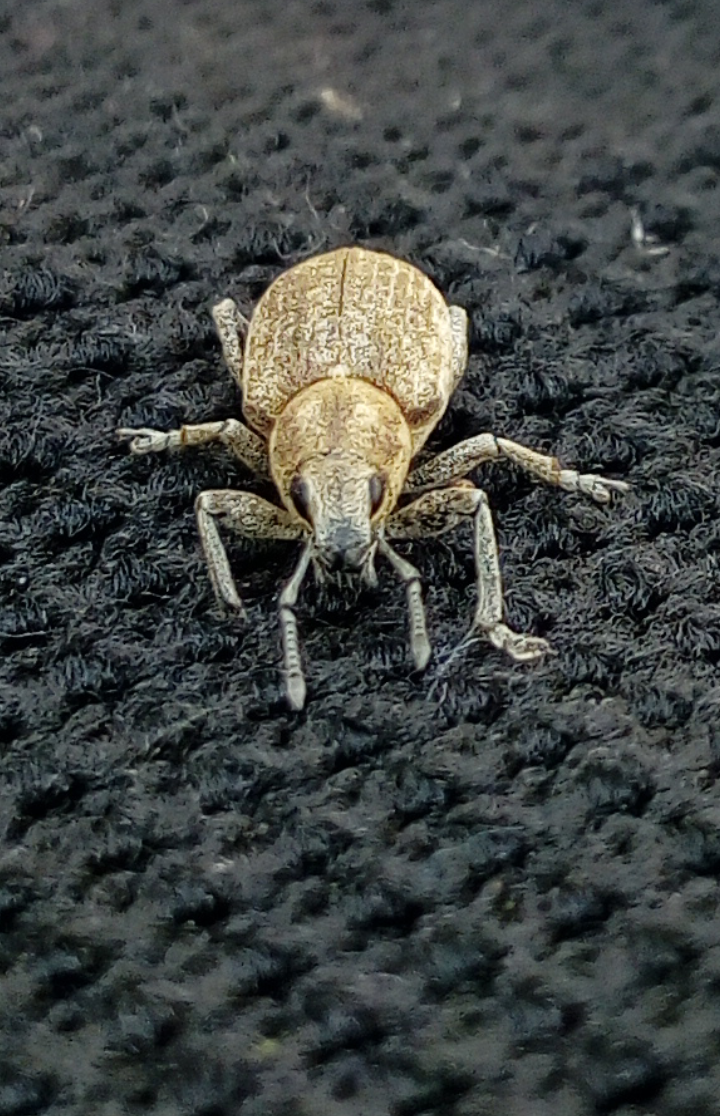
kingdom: Animalia
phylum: Arthropoda
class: Insecta
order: Coleoptera
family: Curculionidae
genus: Tanymecus
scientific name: Tanymecus palliatus
